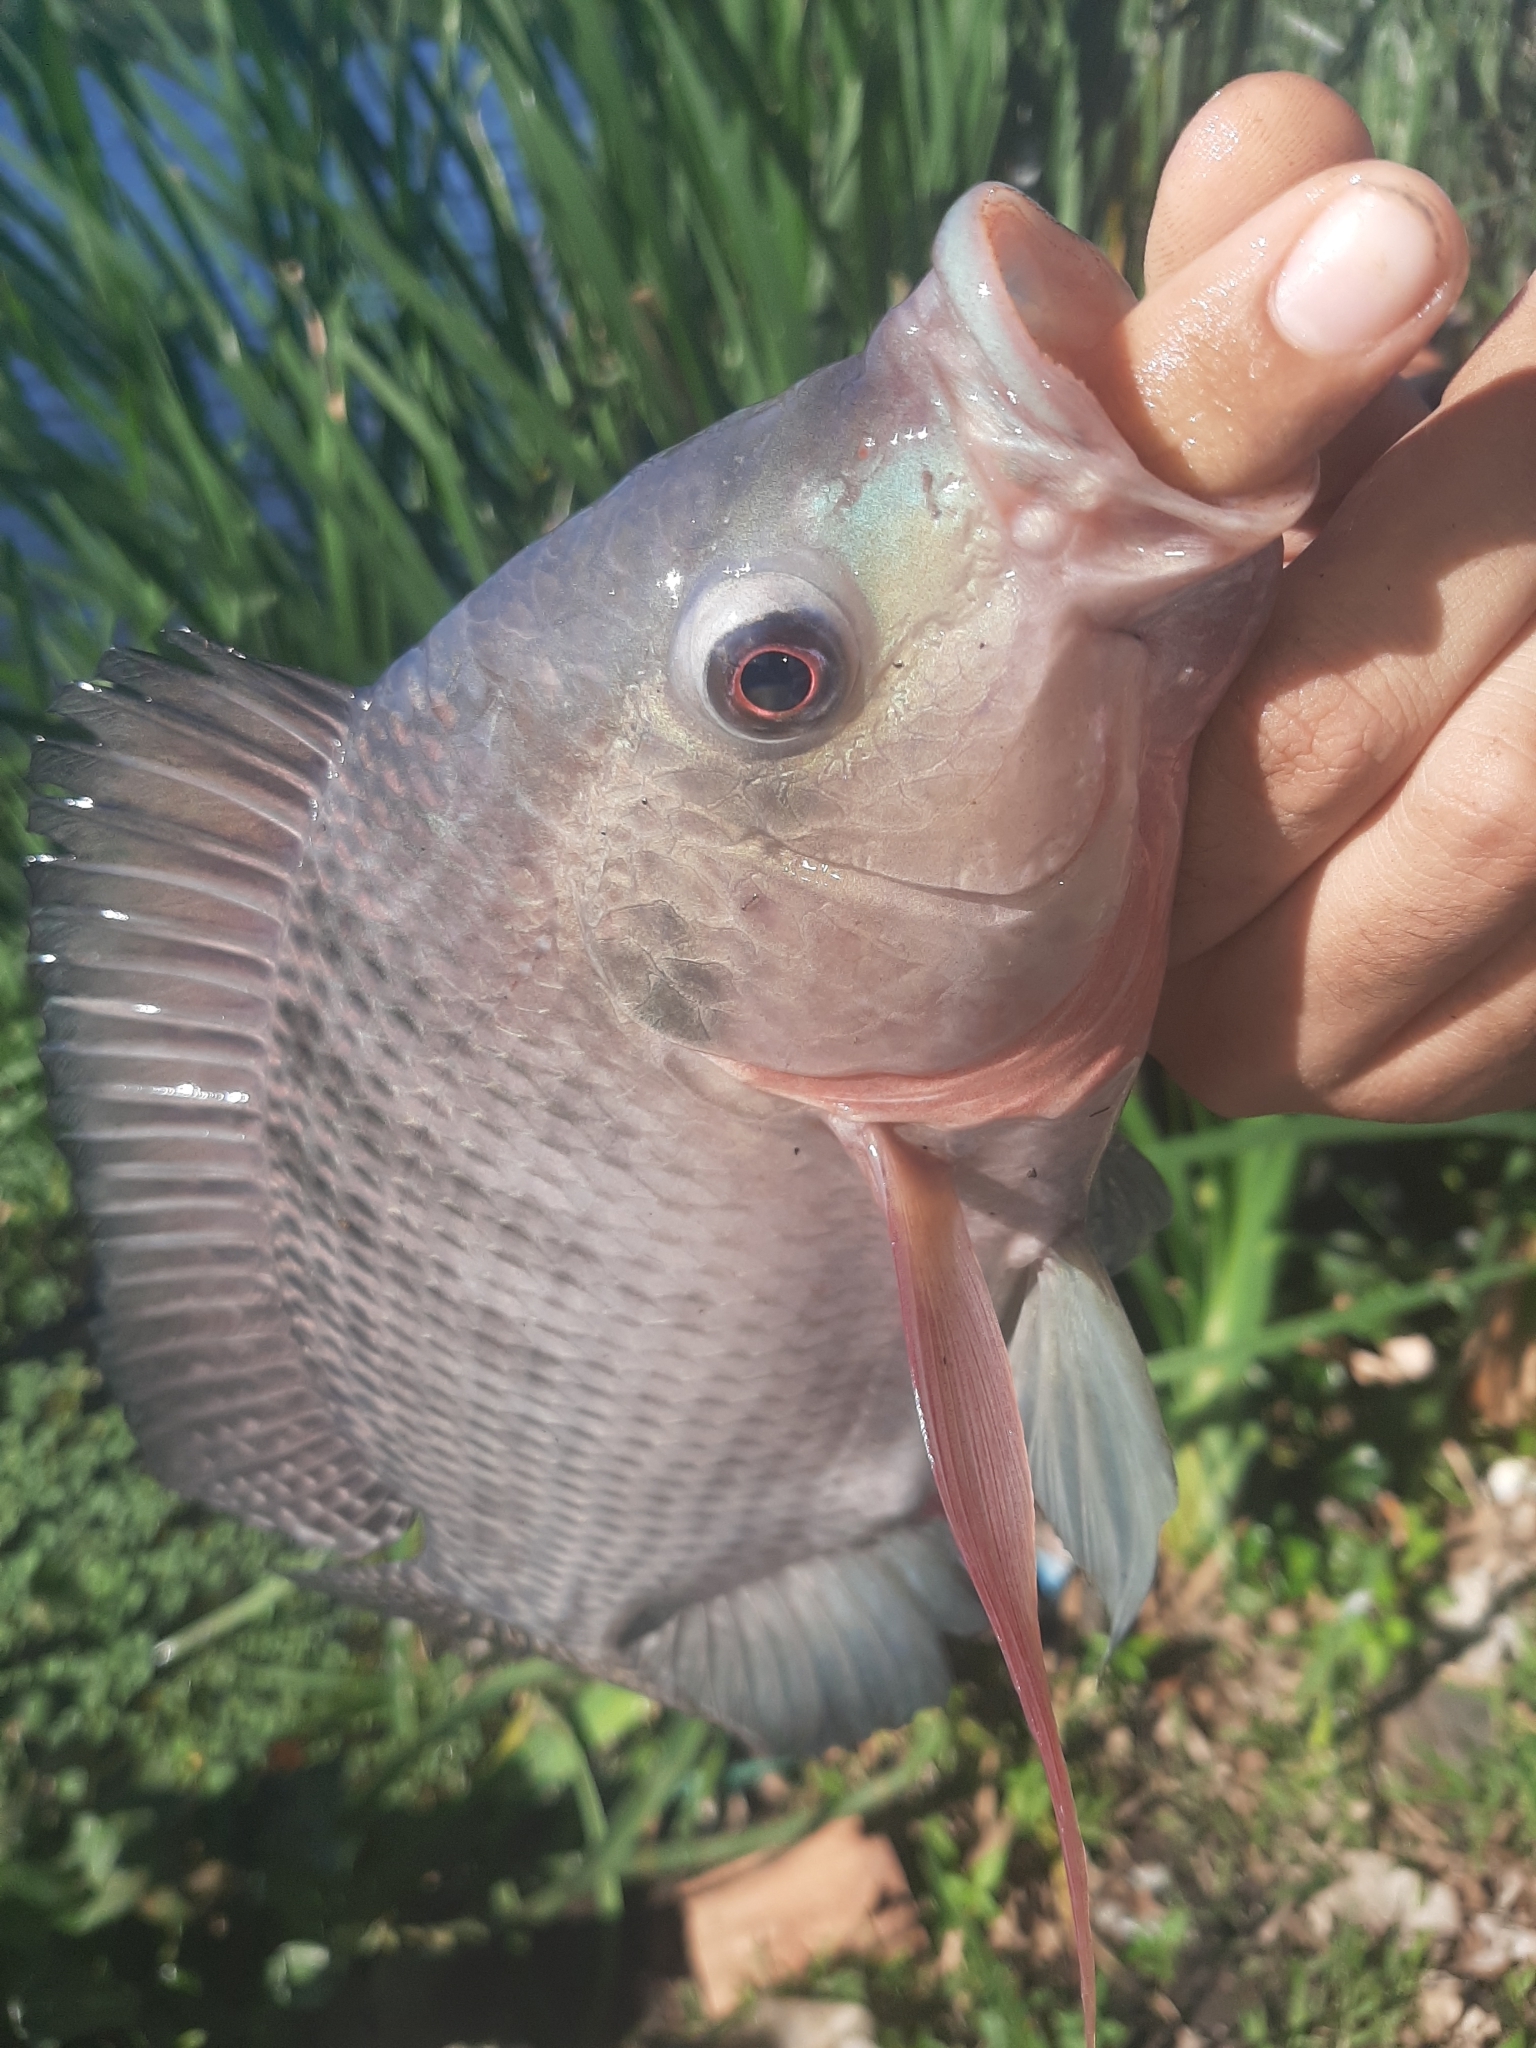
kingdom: Animalia
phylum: Chordata
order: Perciformes
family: Cichlidae
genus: Oreochromis
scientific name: Oreochromis niloticus
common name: Nile tilapia
